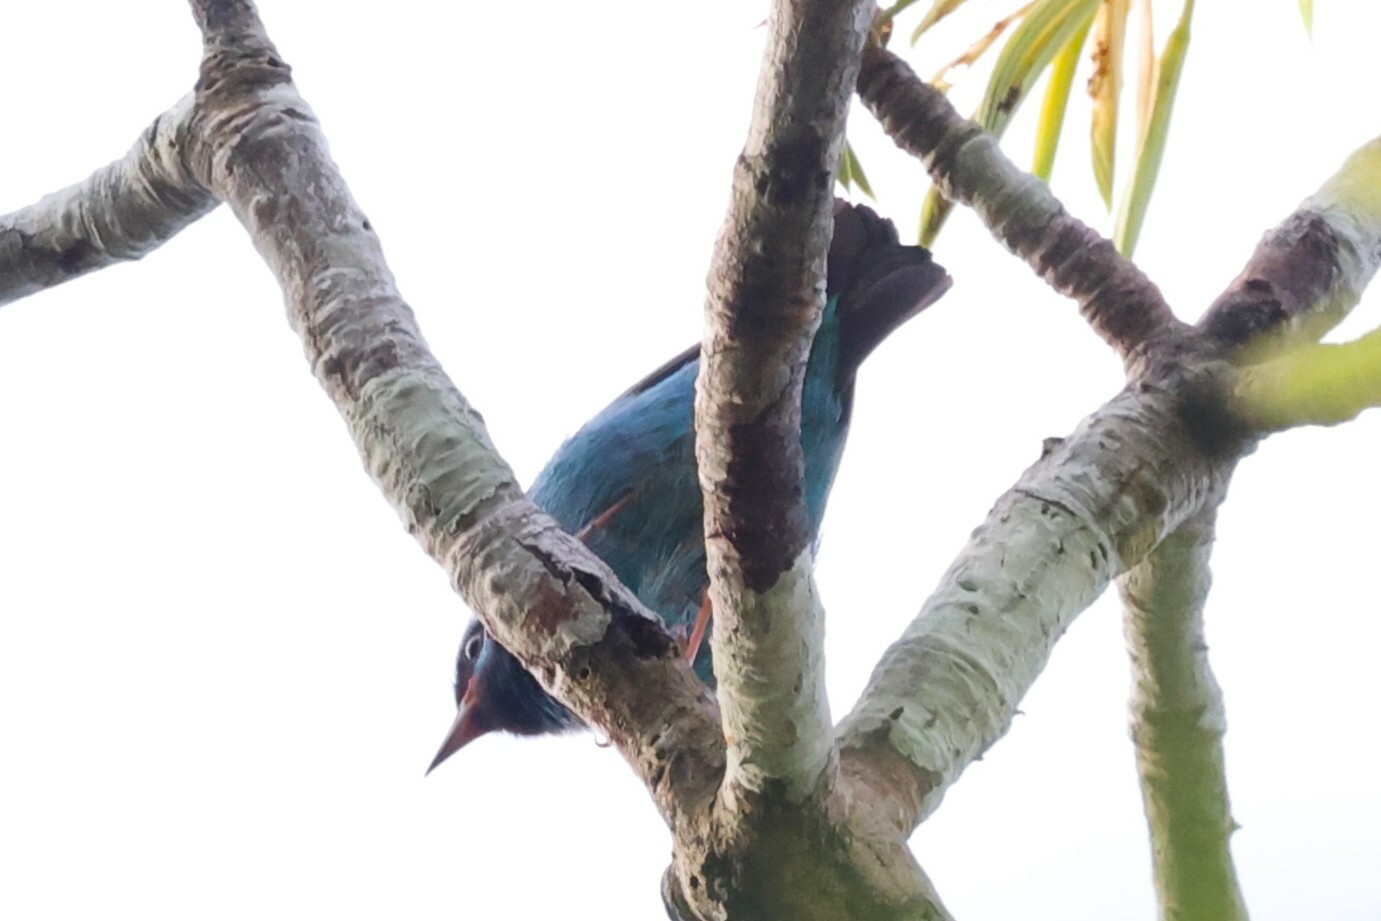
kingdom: Animalia
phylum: Chordata
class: Aves
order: Passeriformes
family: Thraupidae
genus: Dacnis
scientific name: Dacnis cayana
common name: Blue dacnis
